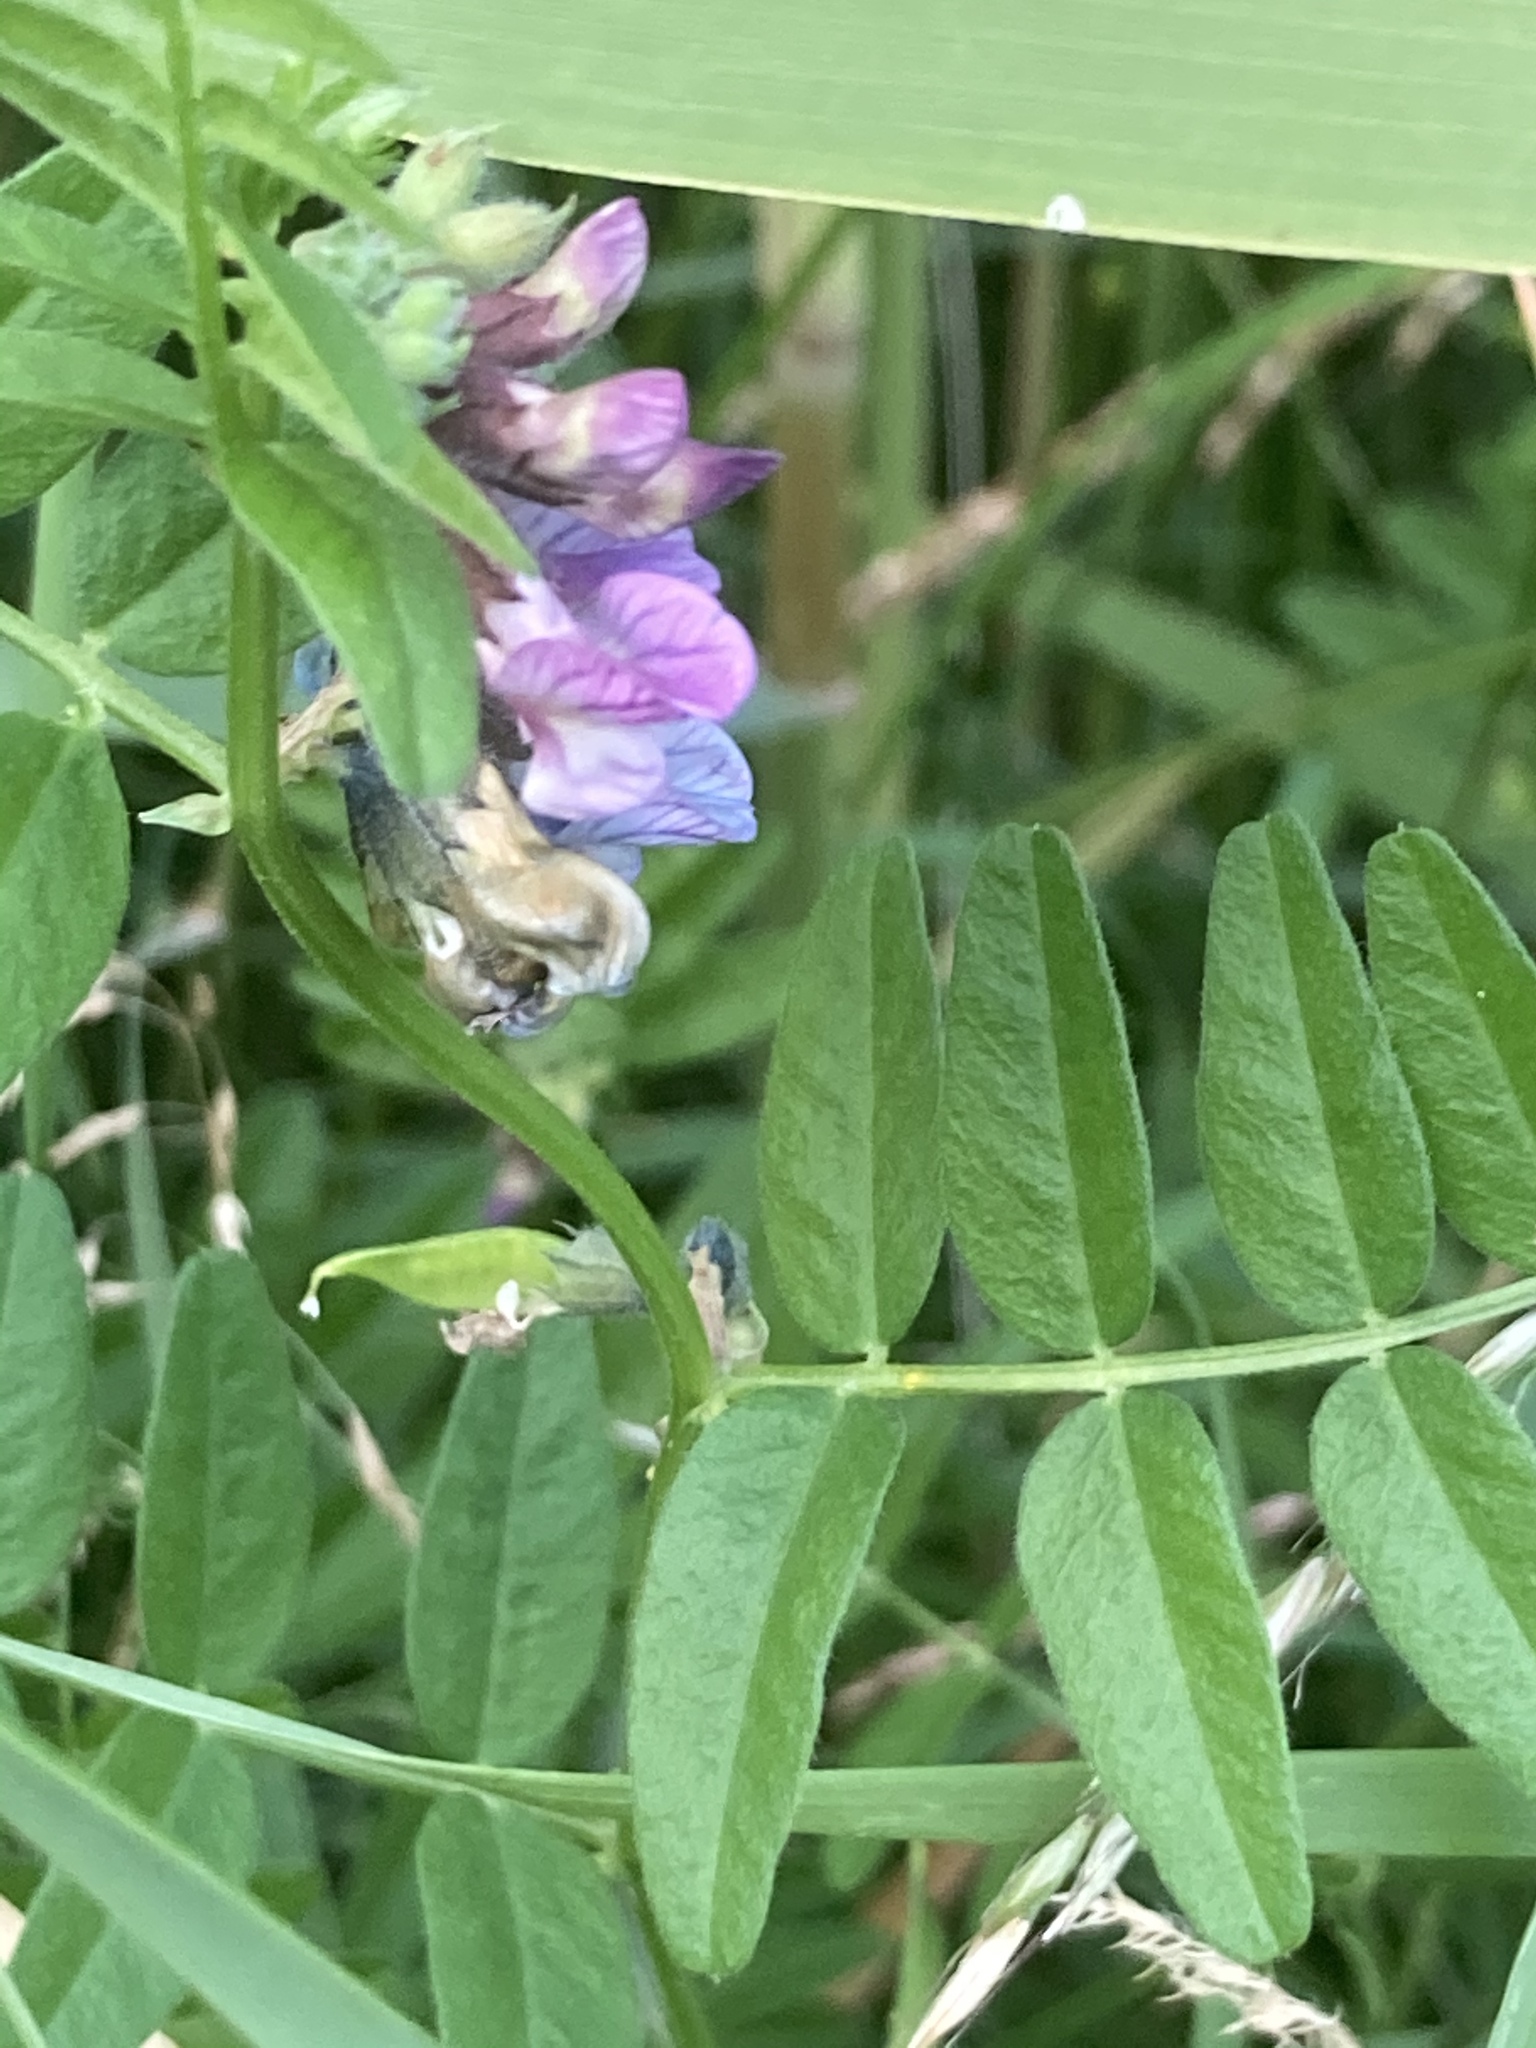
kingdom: Plantae
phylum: Tracheophyta
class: Magnoliopsida
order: Fabales
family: Fabaceae
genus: Vicia
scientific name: Vicia sepium
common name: Bush vetch
